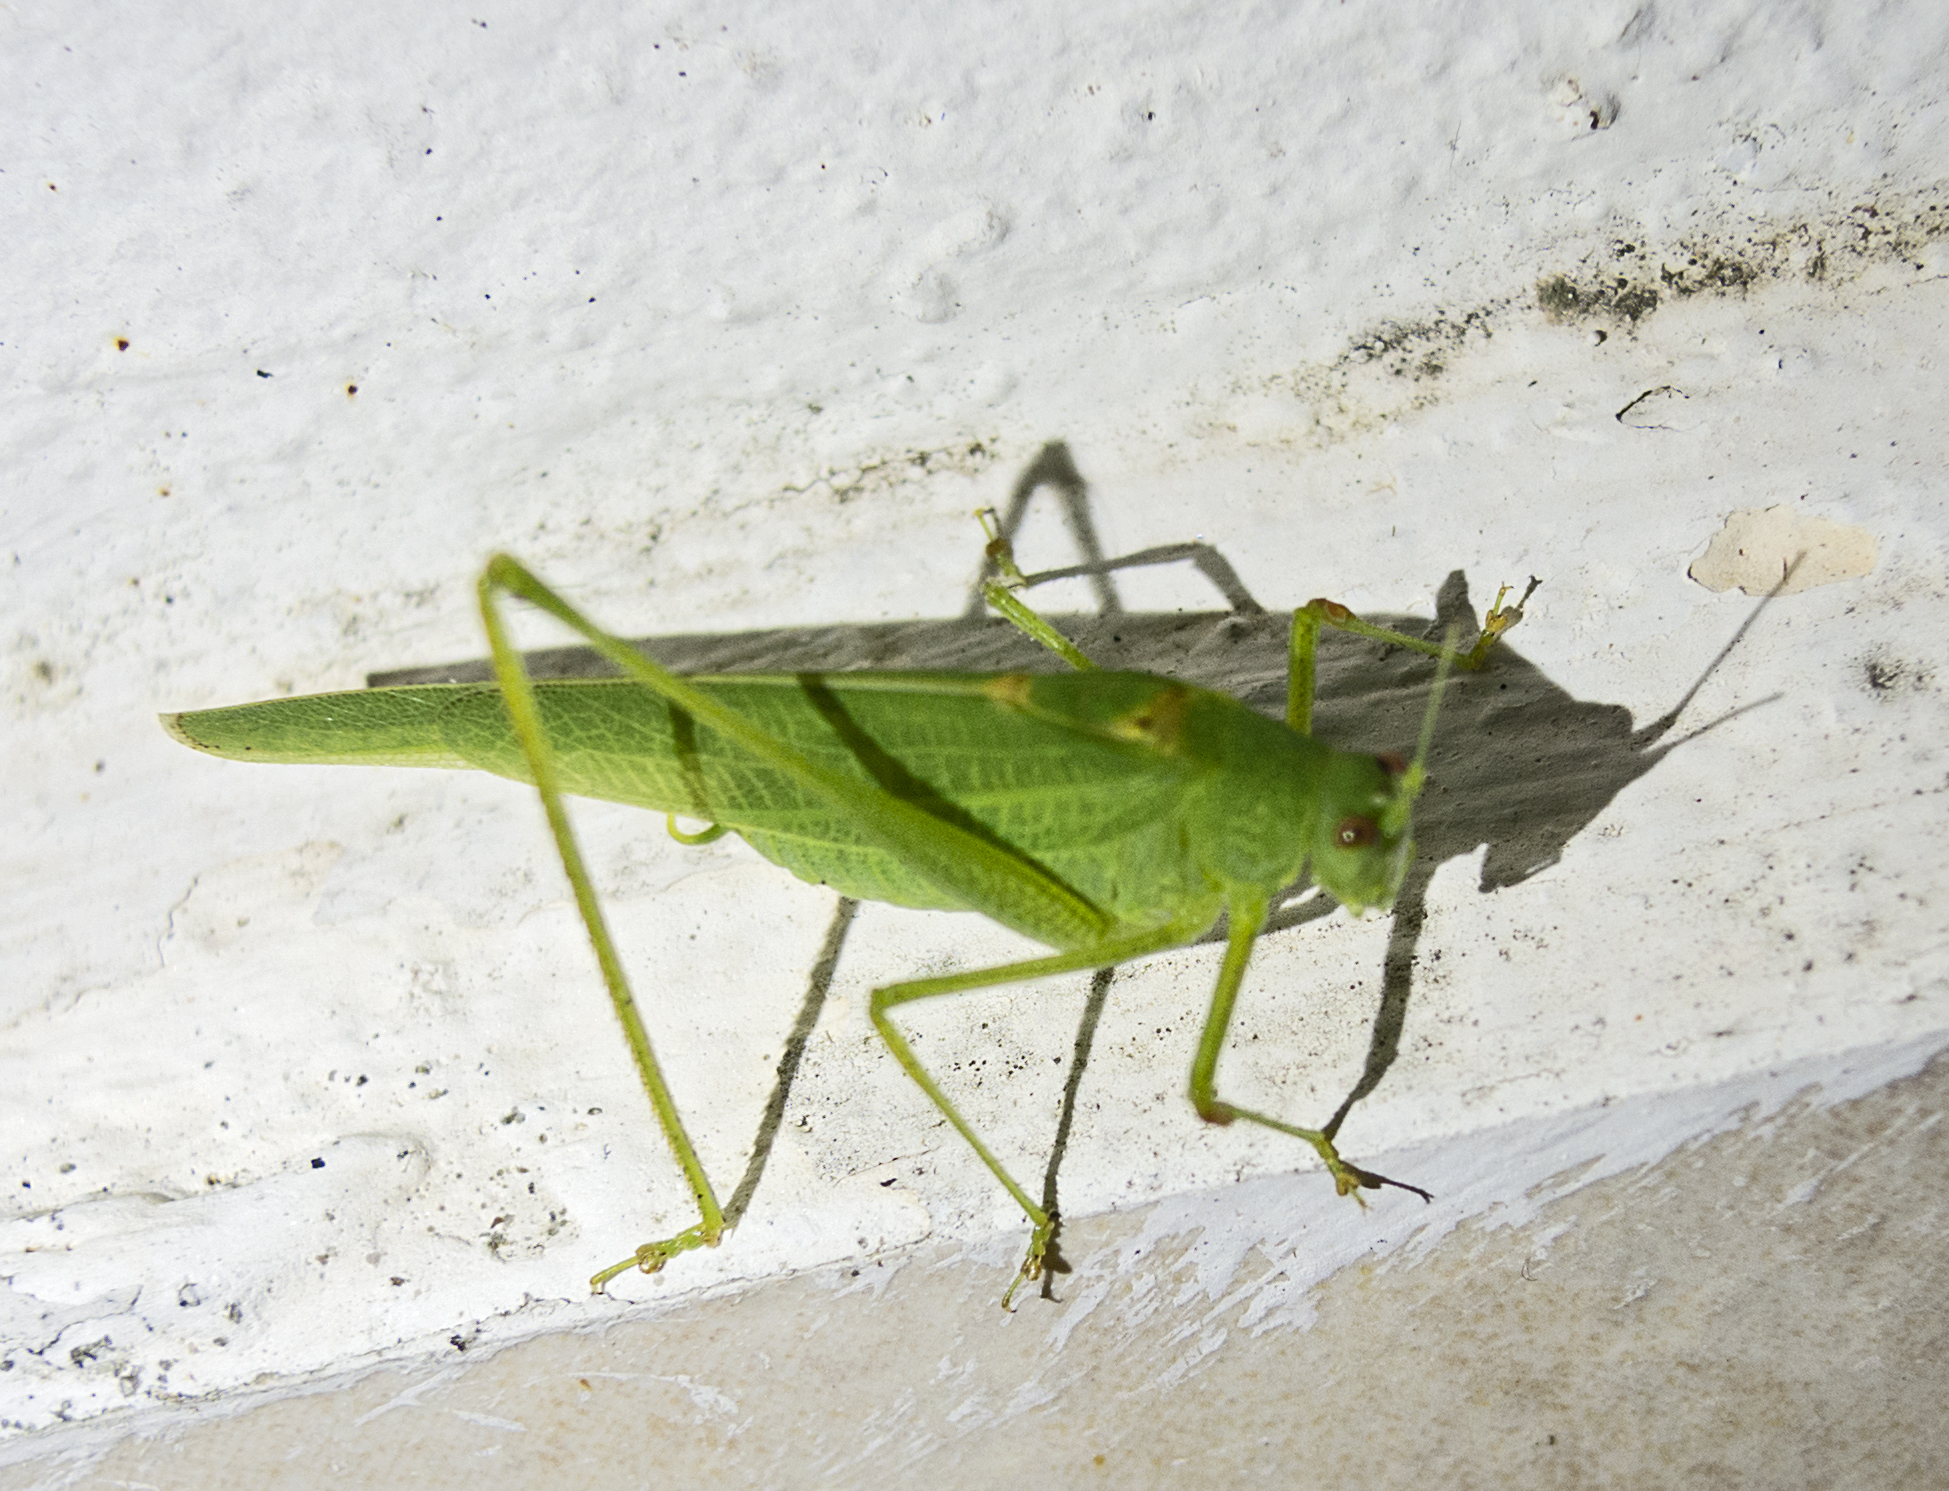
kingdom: Animalia
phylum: Arthropoda
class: Insecta
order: Orthoptera
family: Tettigoniidae
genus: Phaneroptera
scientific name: Phaneroptera nana
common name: Southern sickle bush-cricket
